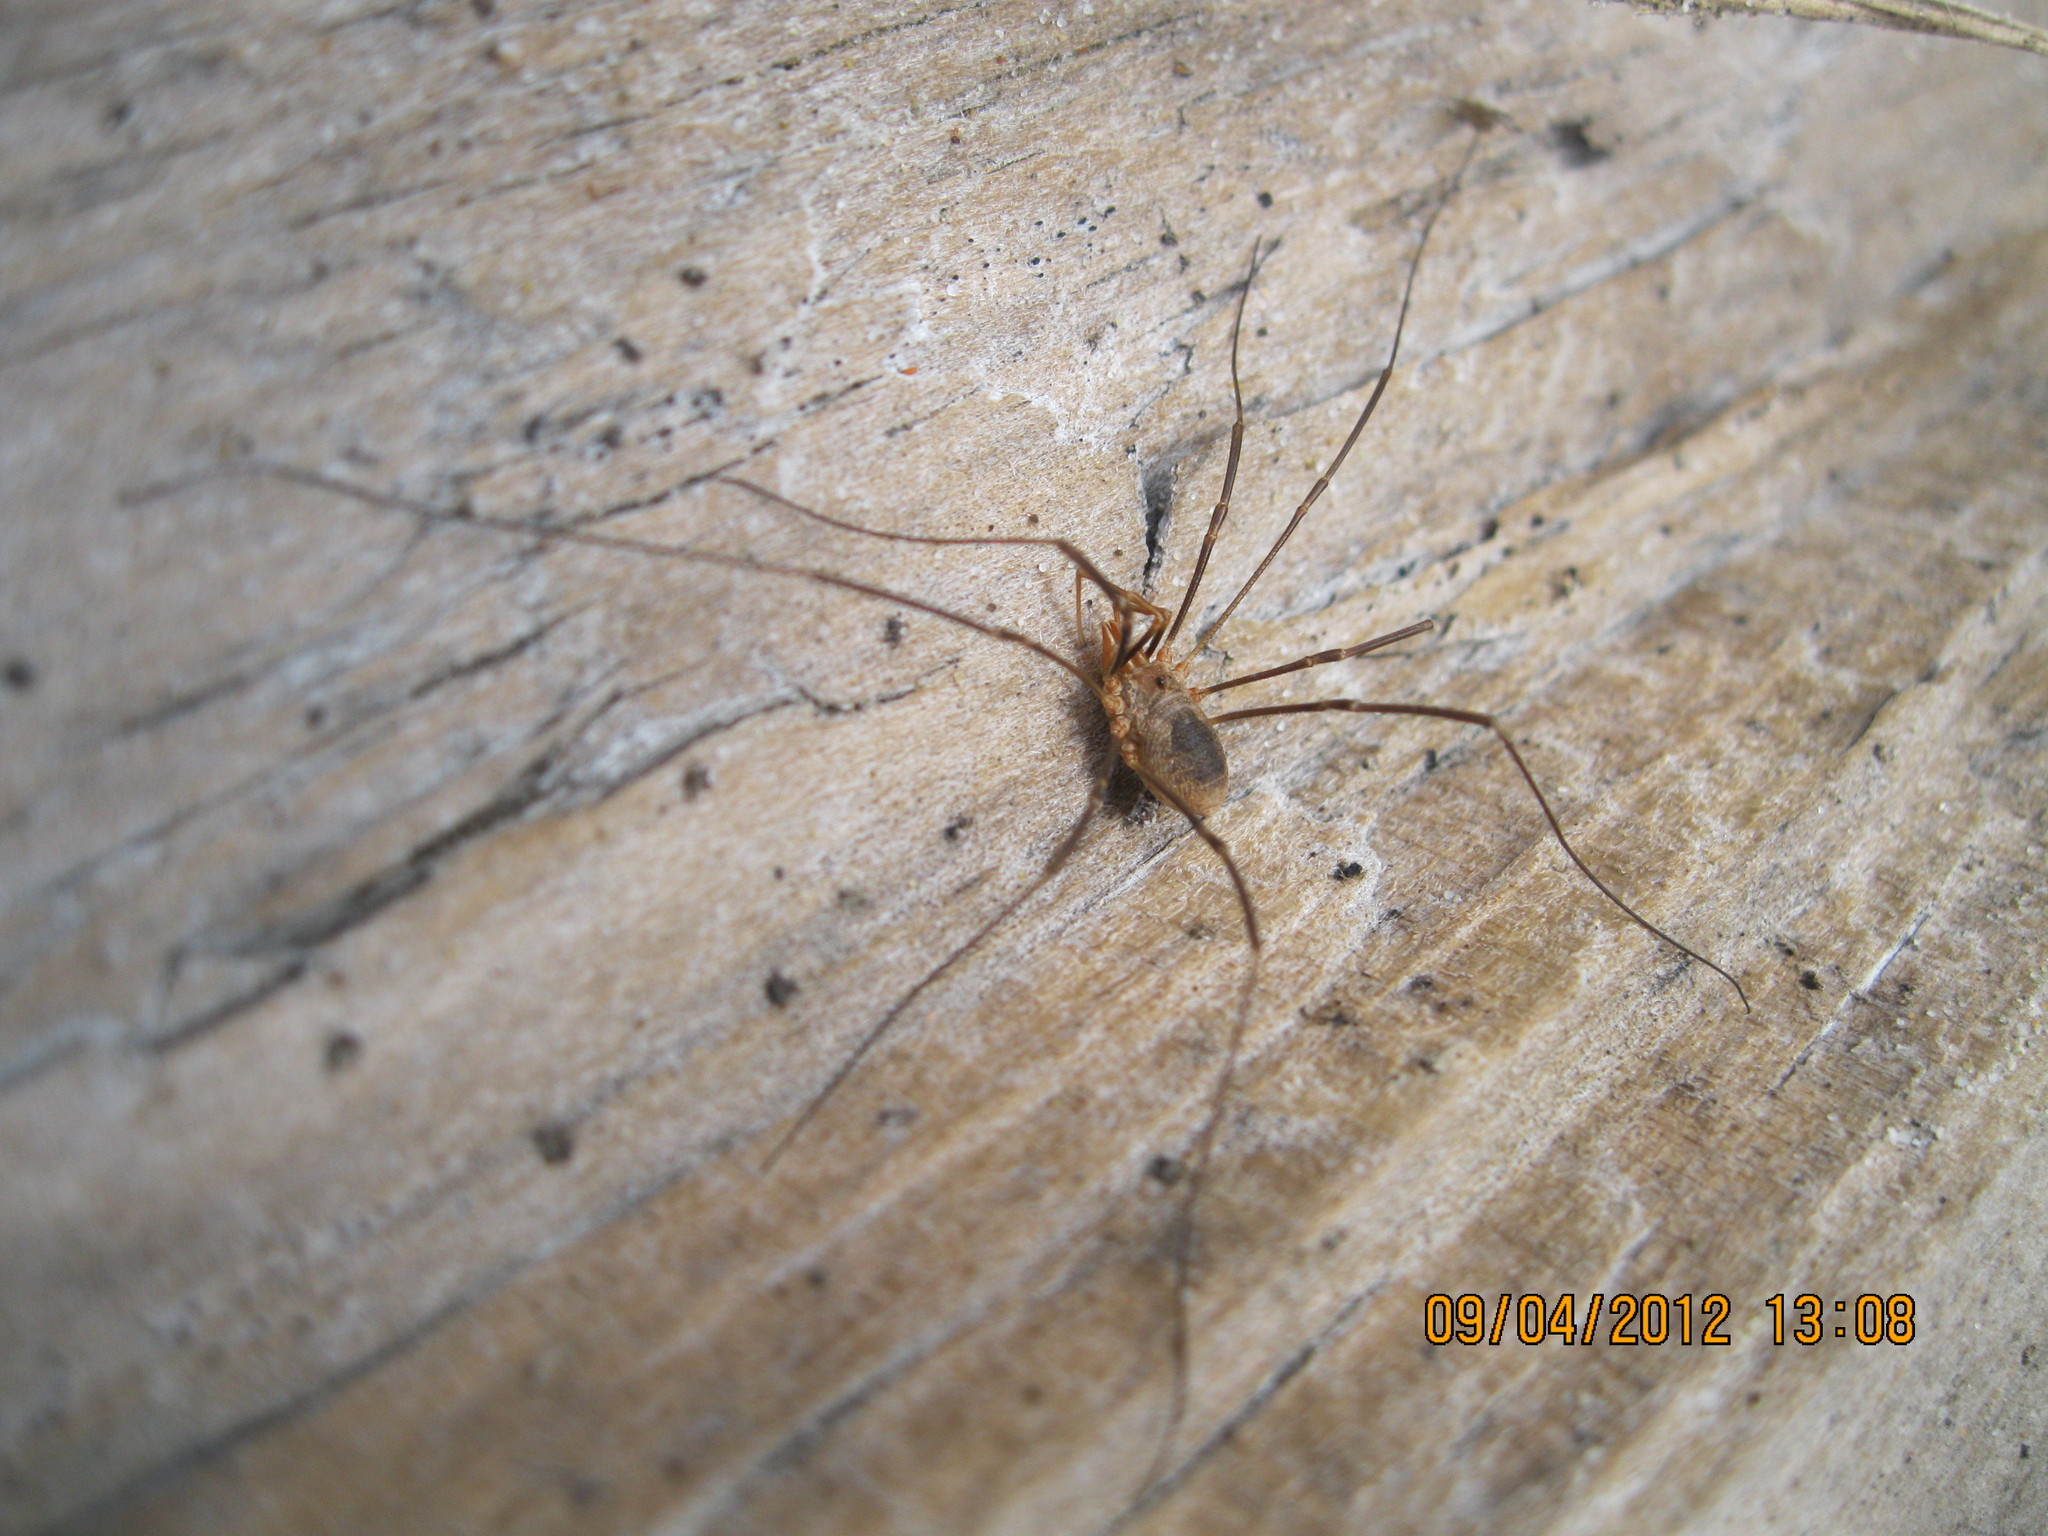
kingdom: Animalia
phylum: Arthropoda
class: Arachnida
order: Opiliones
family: Phalangiidae
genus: Phalangium
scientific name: Phalangium opilio
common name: Daddy longleg
